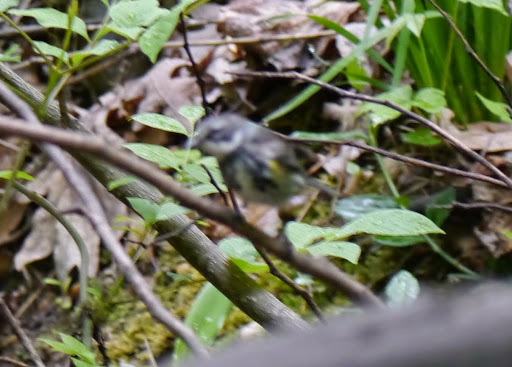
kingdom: Animalia
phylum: Chordata
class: Aves
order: Passeriformes
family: Parulidae
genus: Setophaga
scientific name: Setophaga coronata
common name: Myrtle warbler
